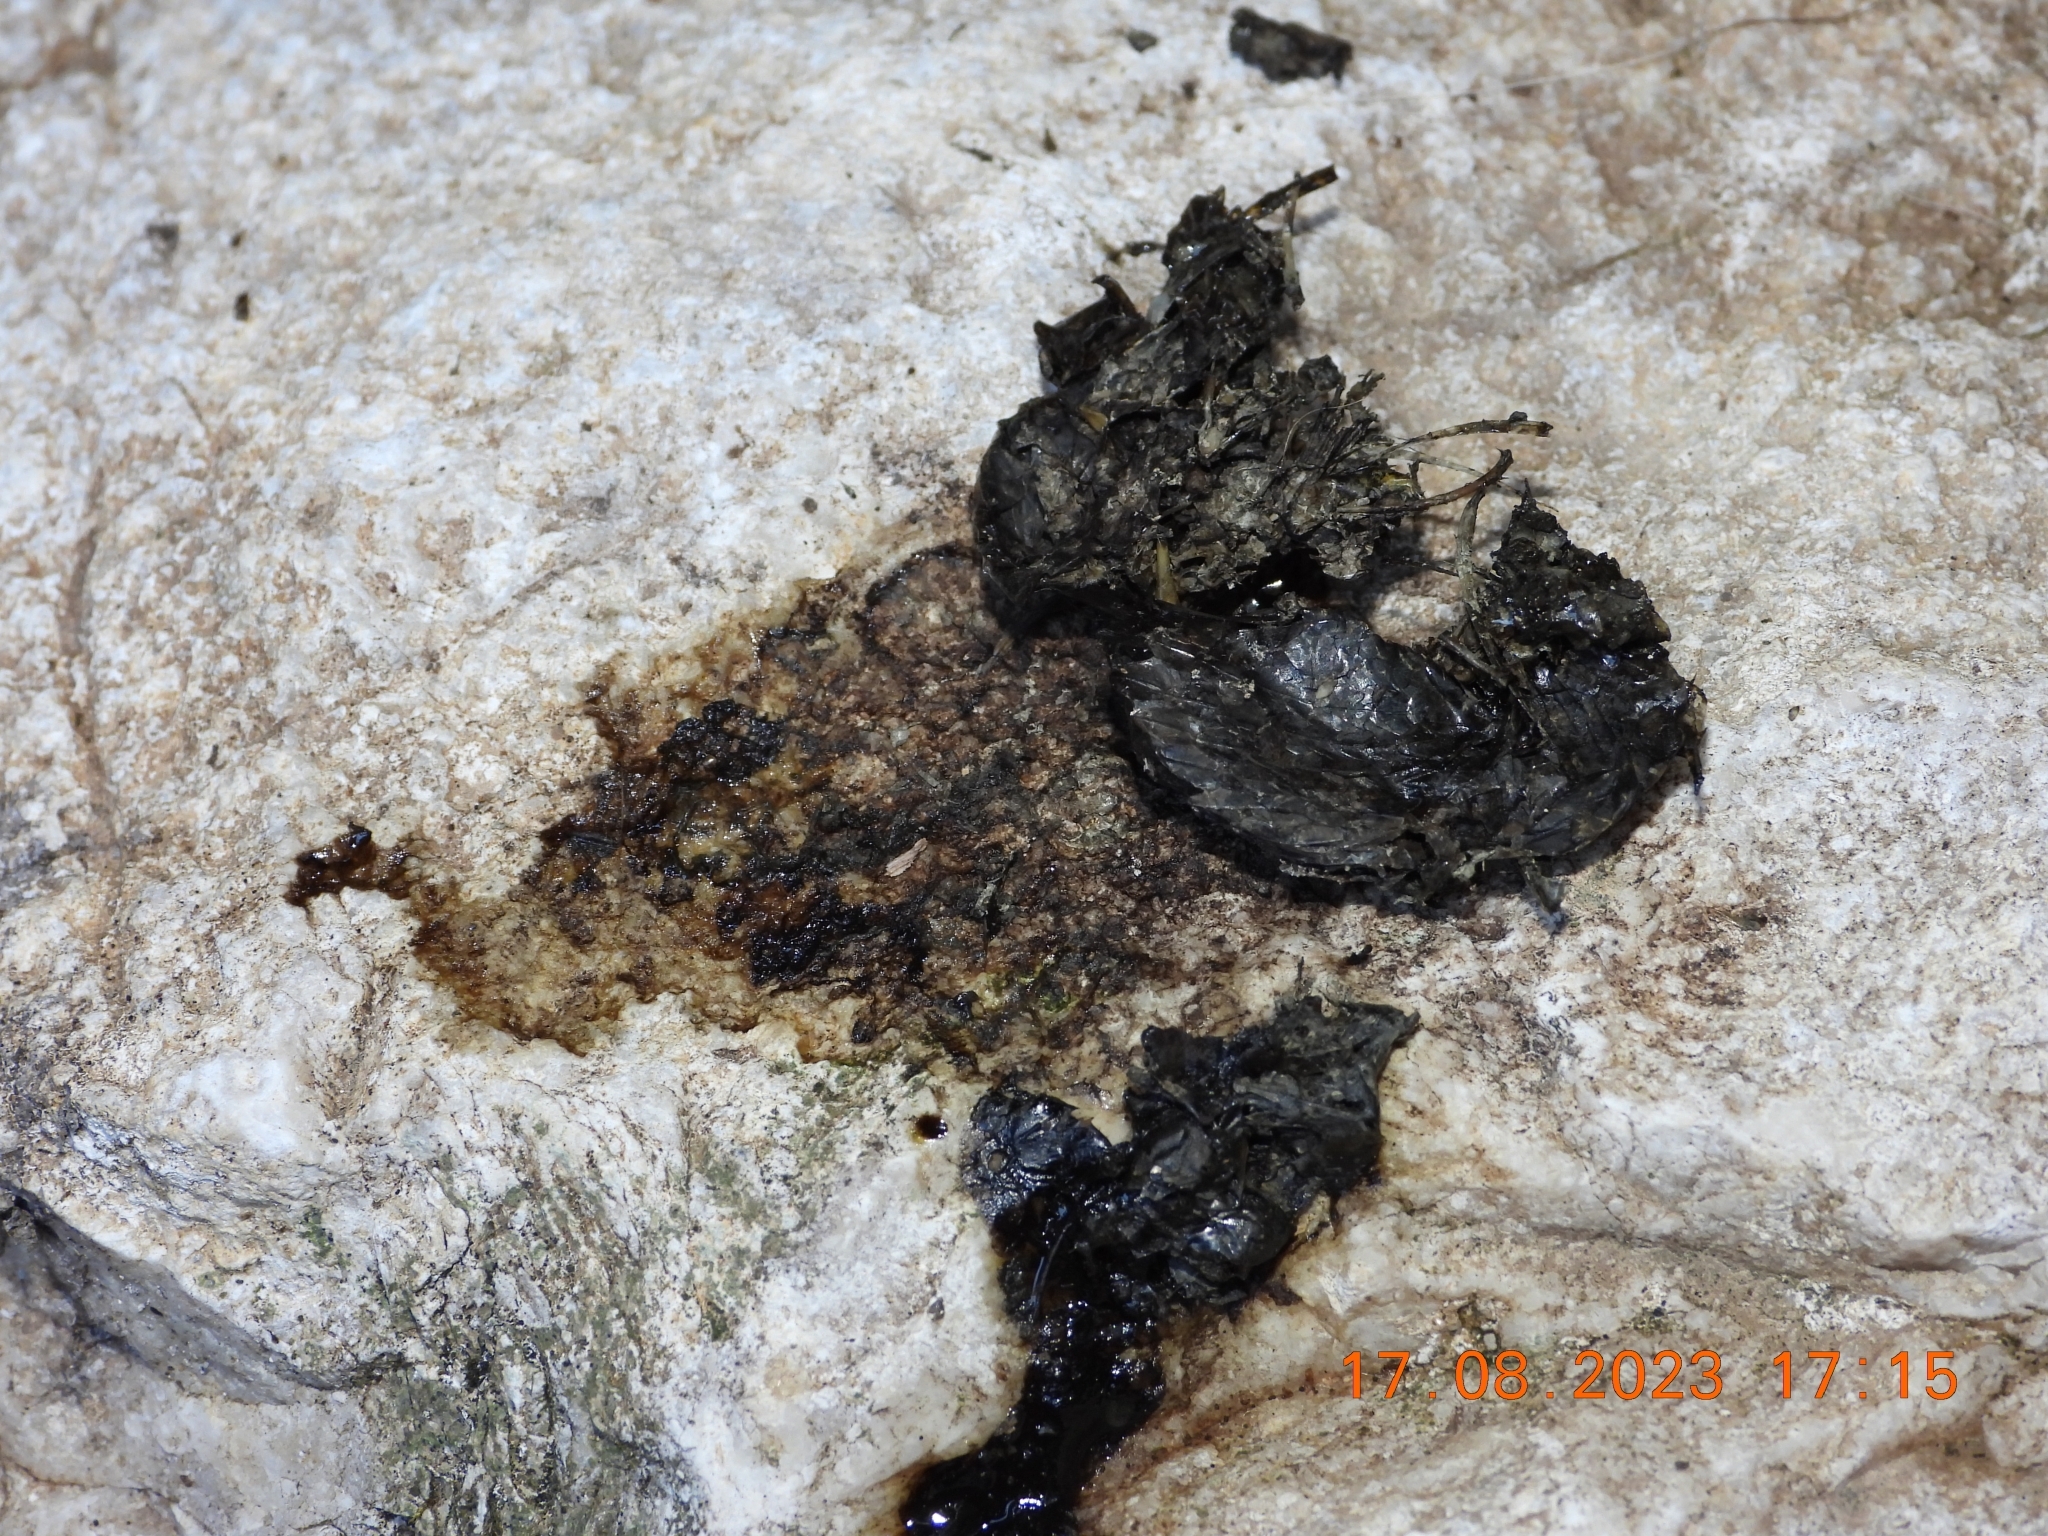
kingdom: Animalia
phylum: Chordata
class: Mammalia
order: Carnivora
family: Mustelidae
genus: Lutra
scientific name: Lutra lutra
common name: European otter
